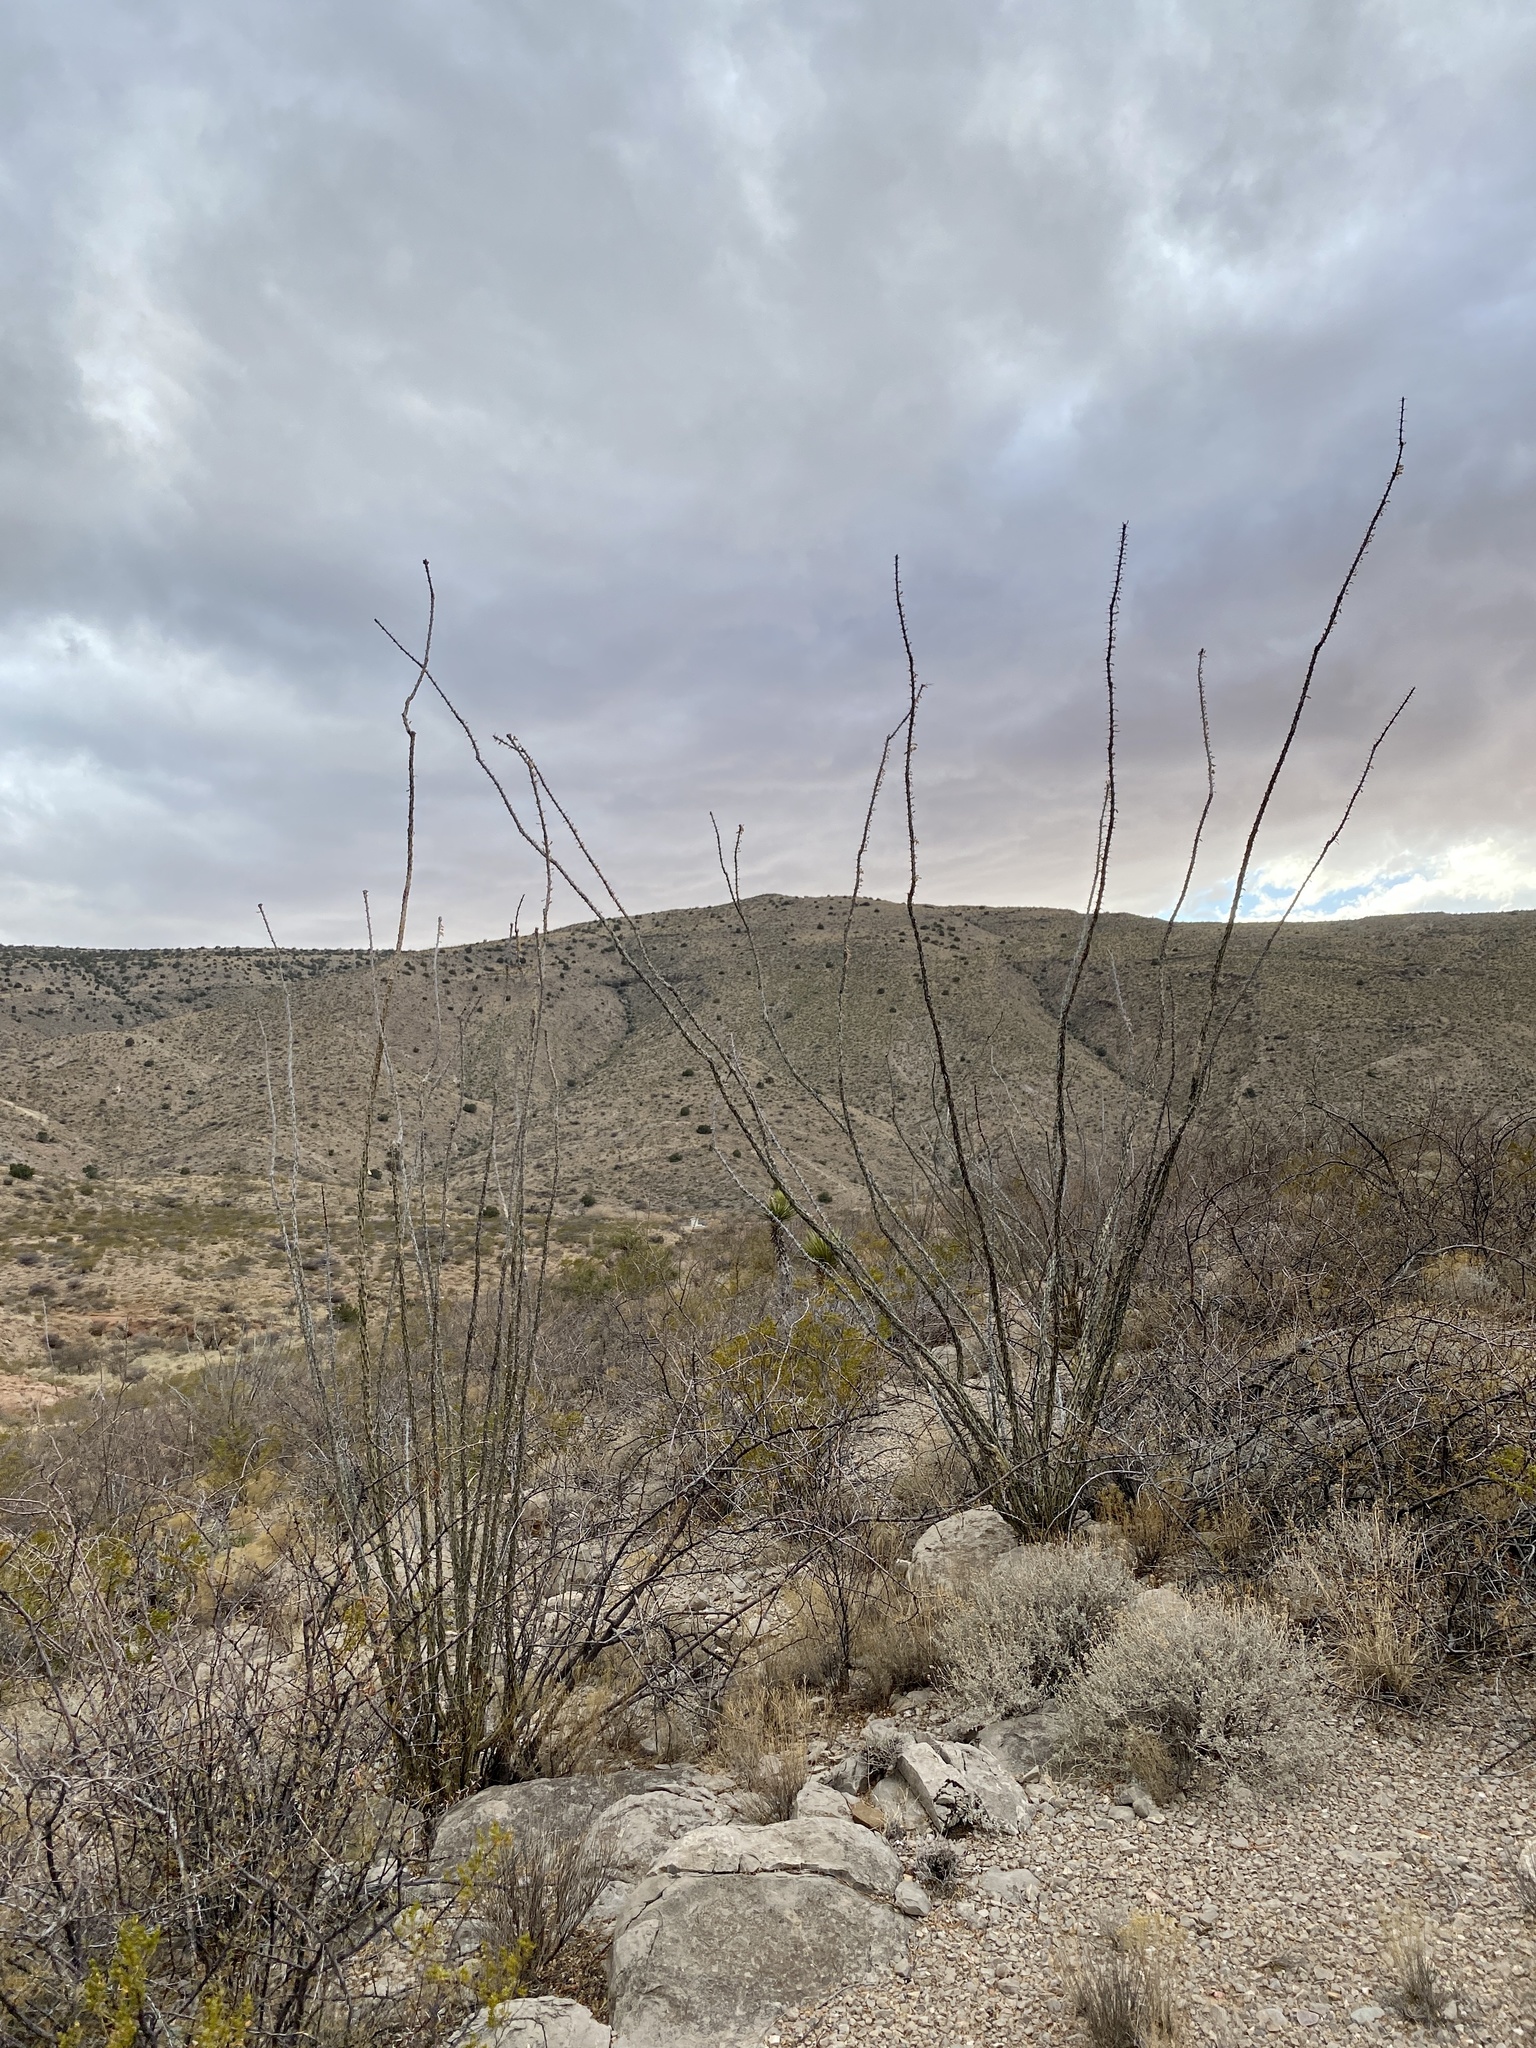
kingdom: Plantae
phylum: Tracheophyta
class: Magnoliopsida
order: Ericales
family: Fouquieriaceae
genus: Fouquieria
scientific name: Fouquieria splendens
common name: Vine-cactus
